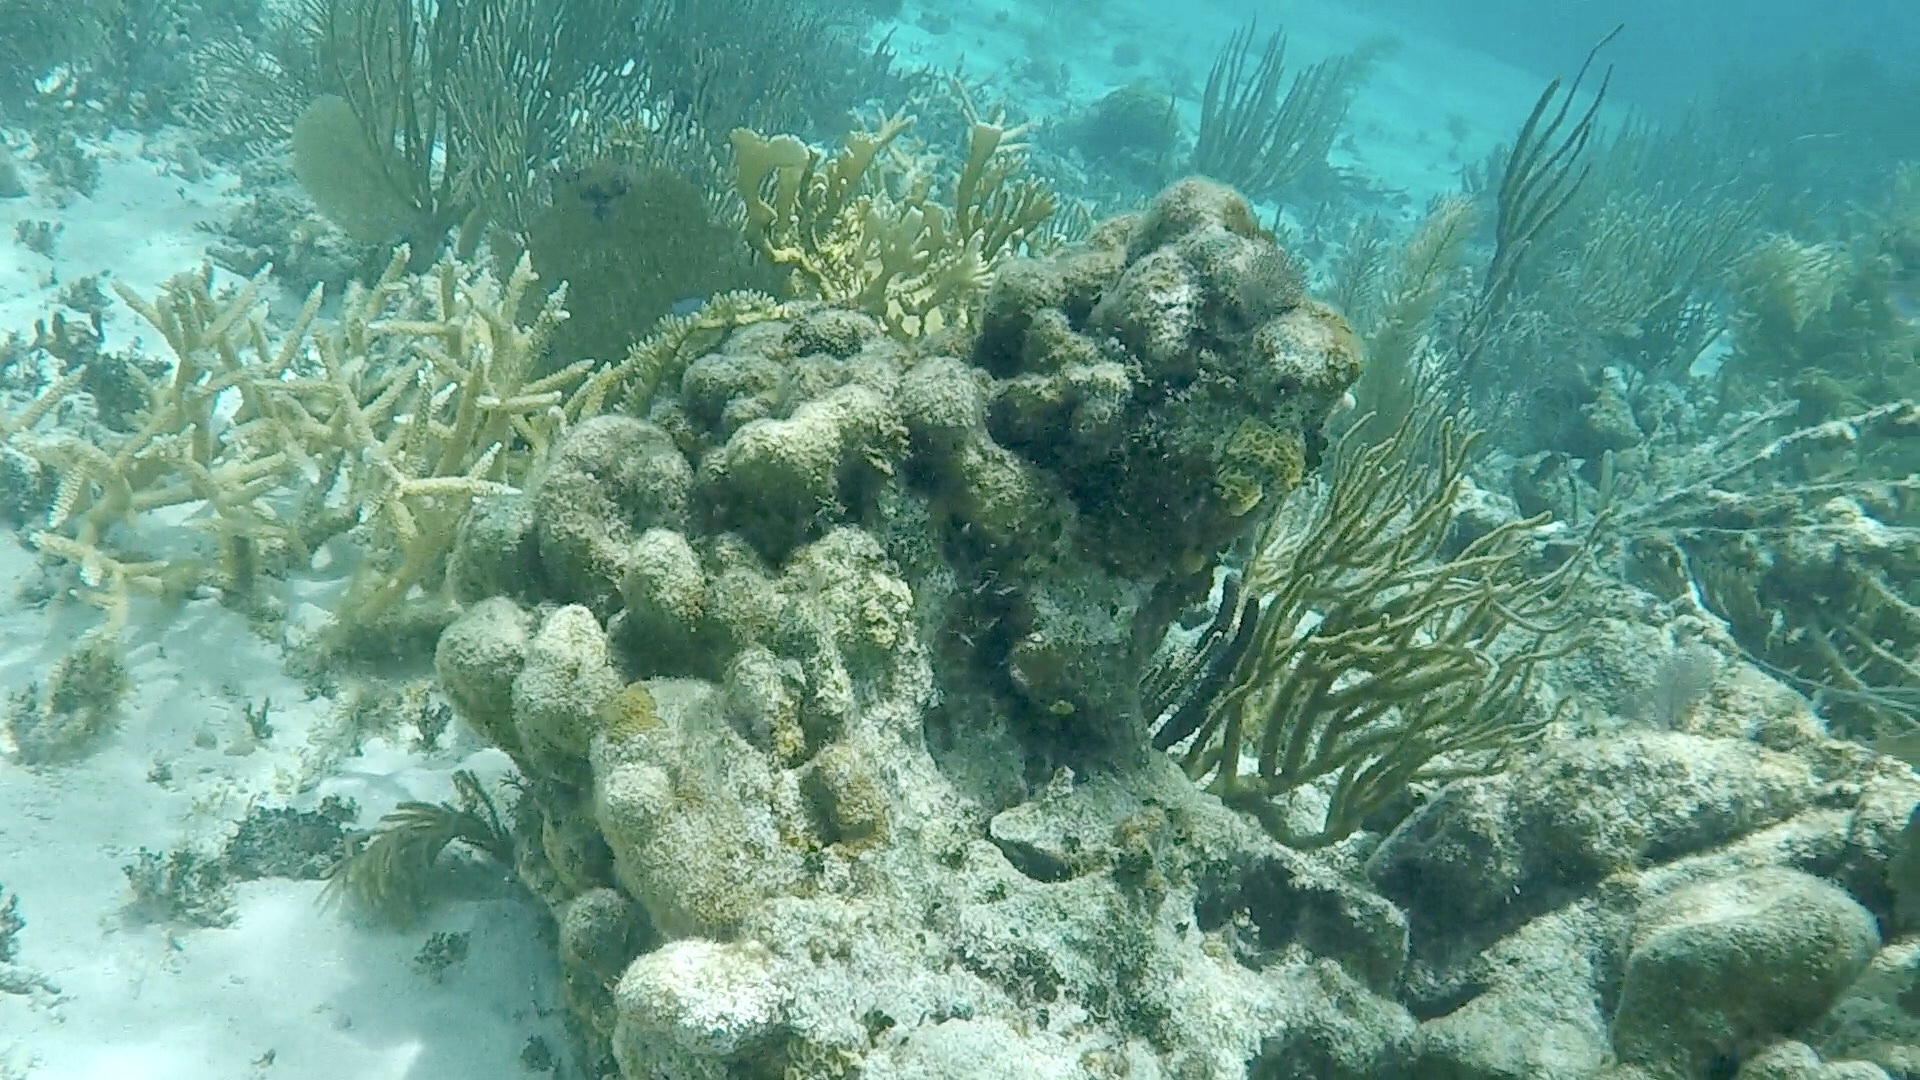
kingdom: Animalia
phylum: Cnidaria
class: Anthozoa
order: Scleractinia
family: Acroporidae
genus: Acropora
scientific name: Acropora cervicornis
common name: Staghorn coral
